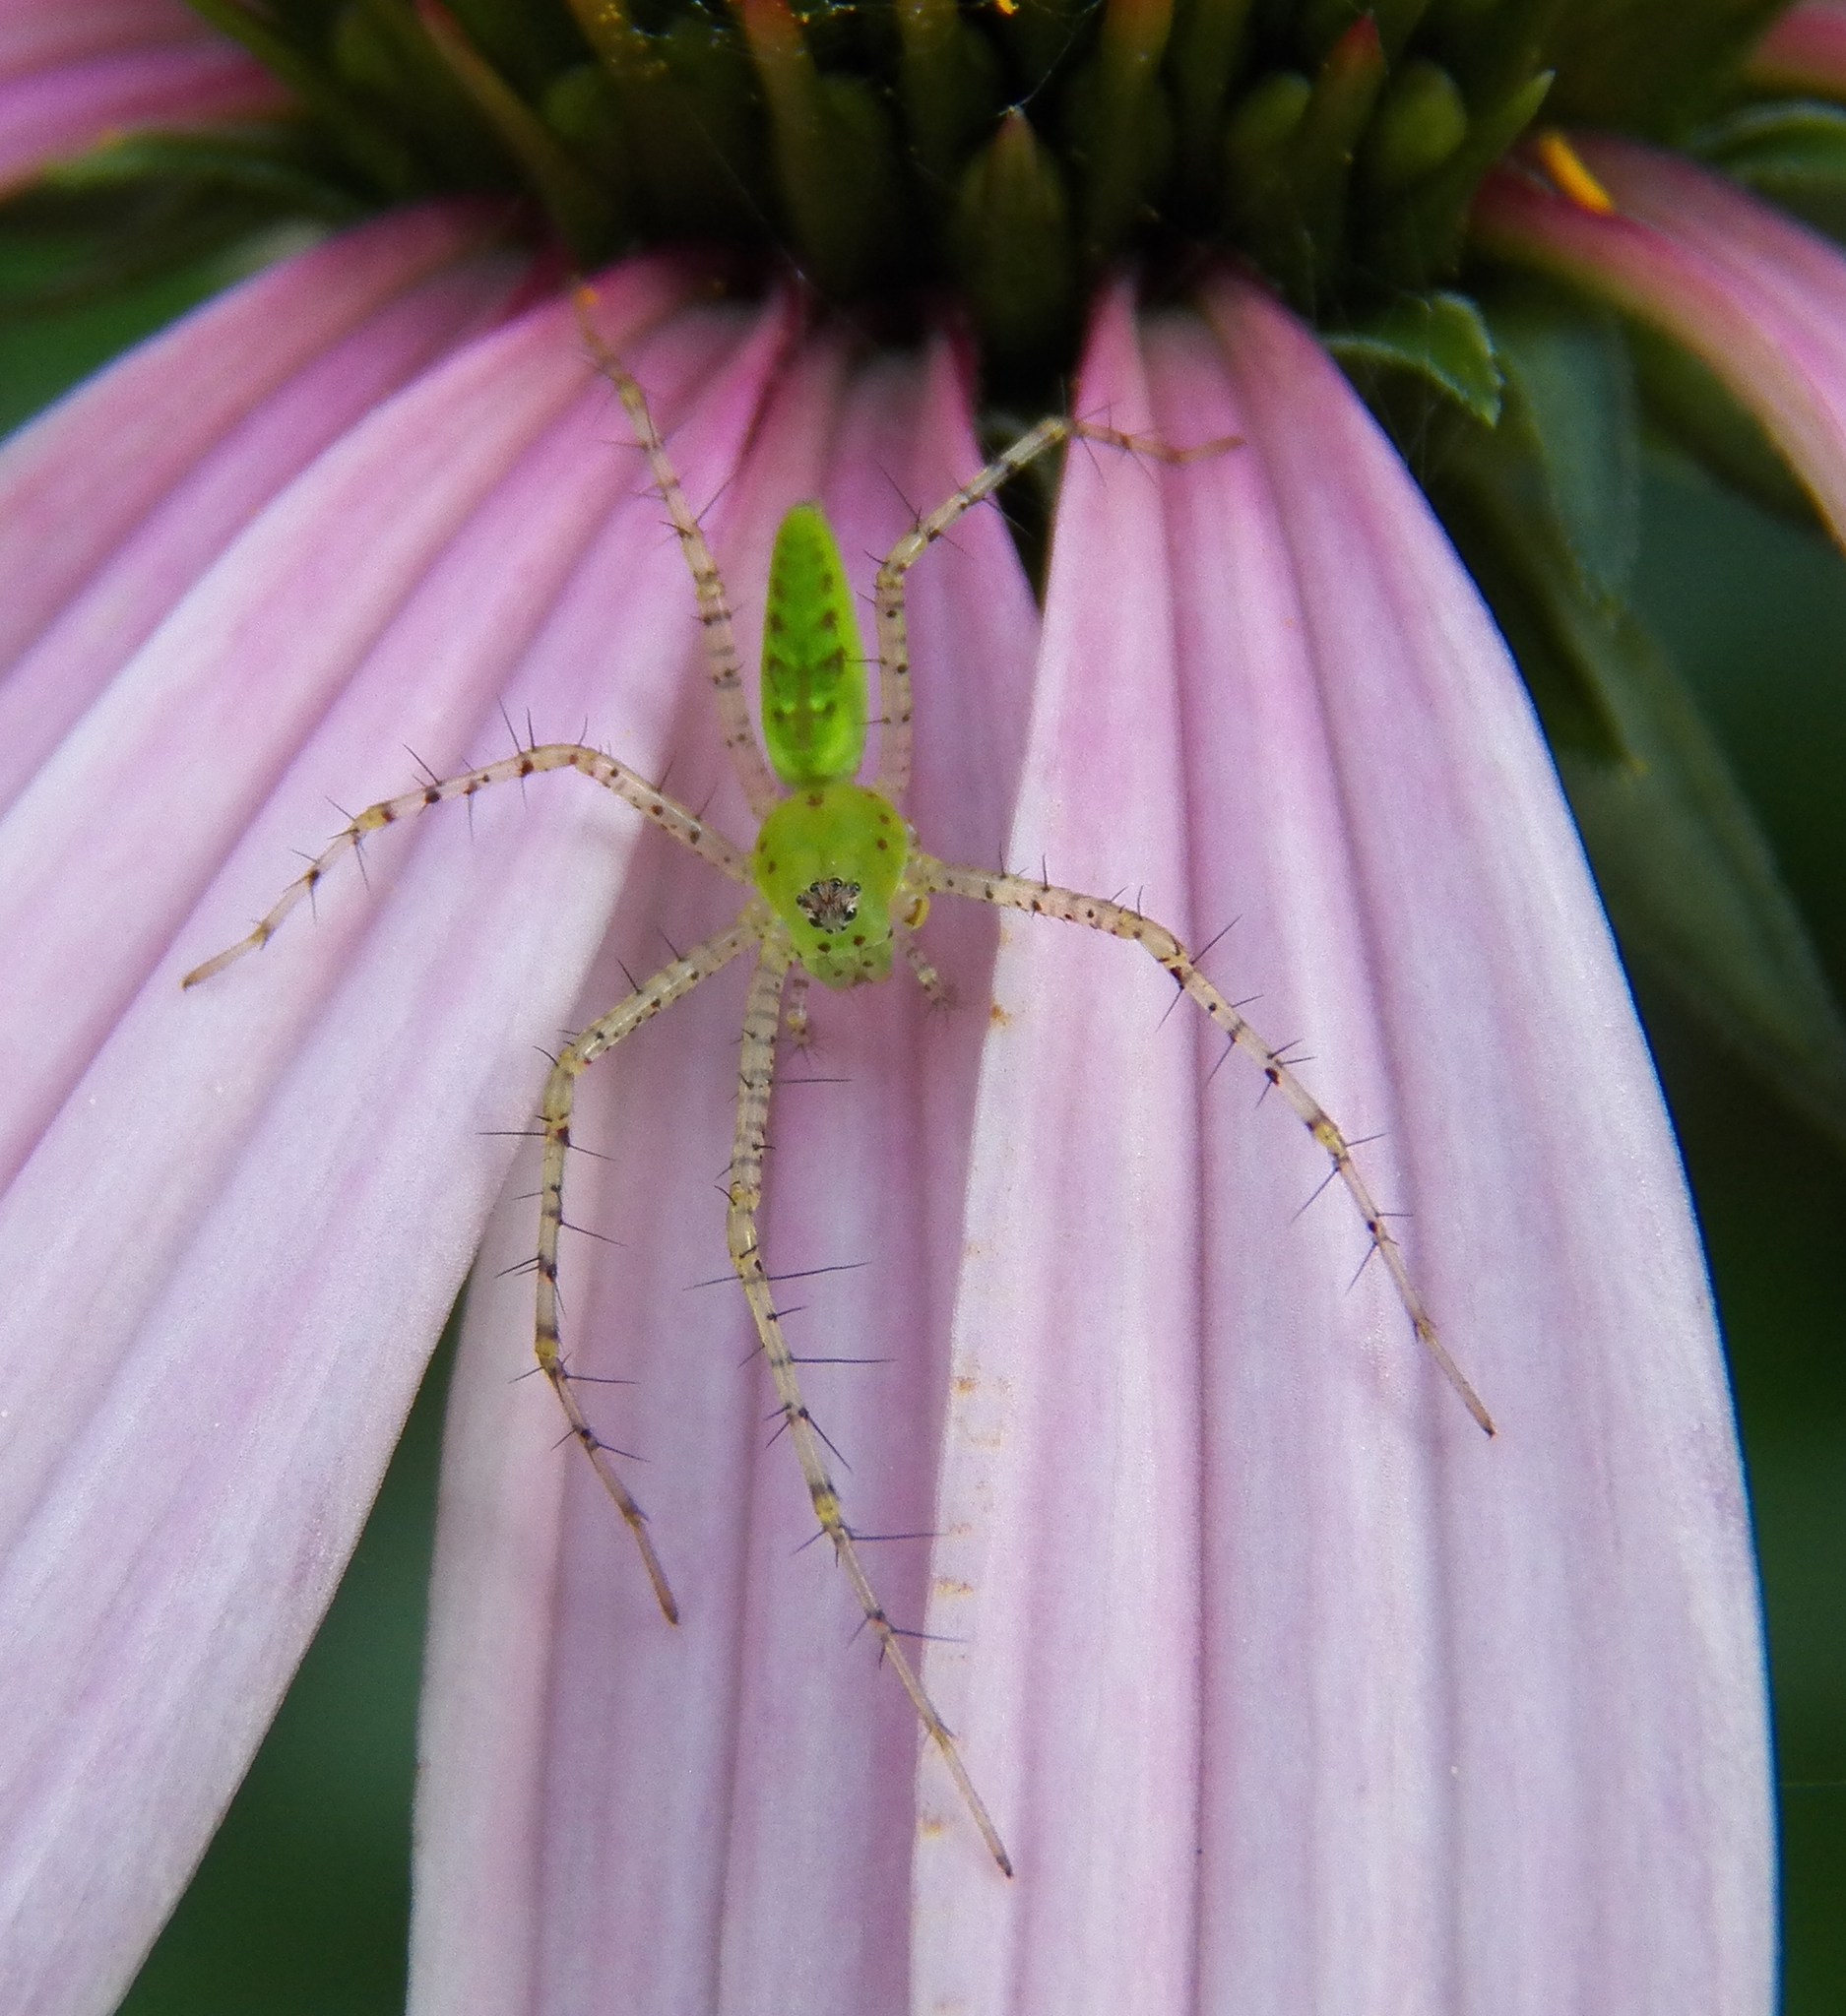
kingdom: Animalia
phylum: Arthropoda
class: Arachnida
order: Araneae
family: Oxyopidae
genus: Peucetia
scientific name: Peucetia viridans
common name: Lynx spiders
